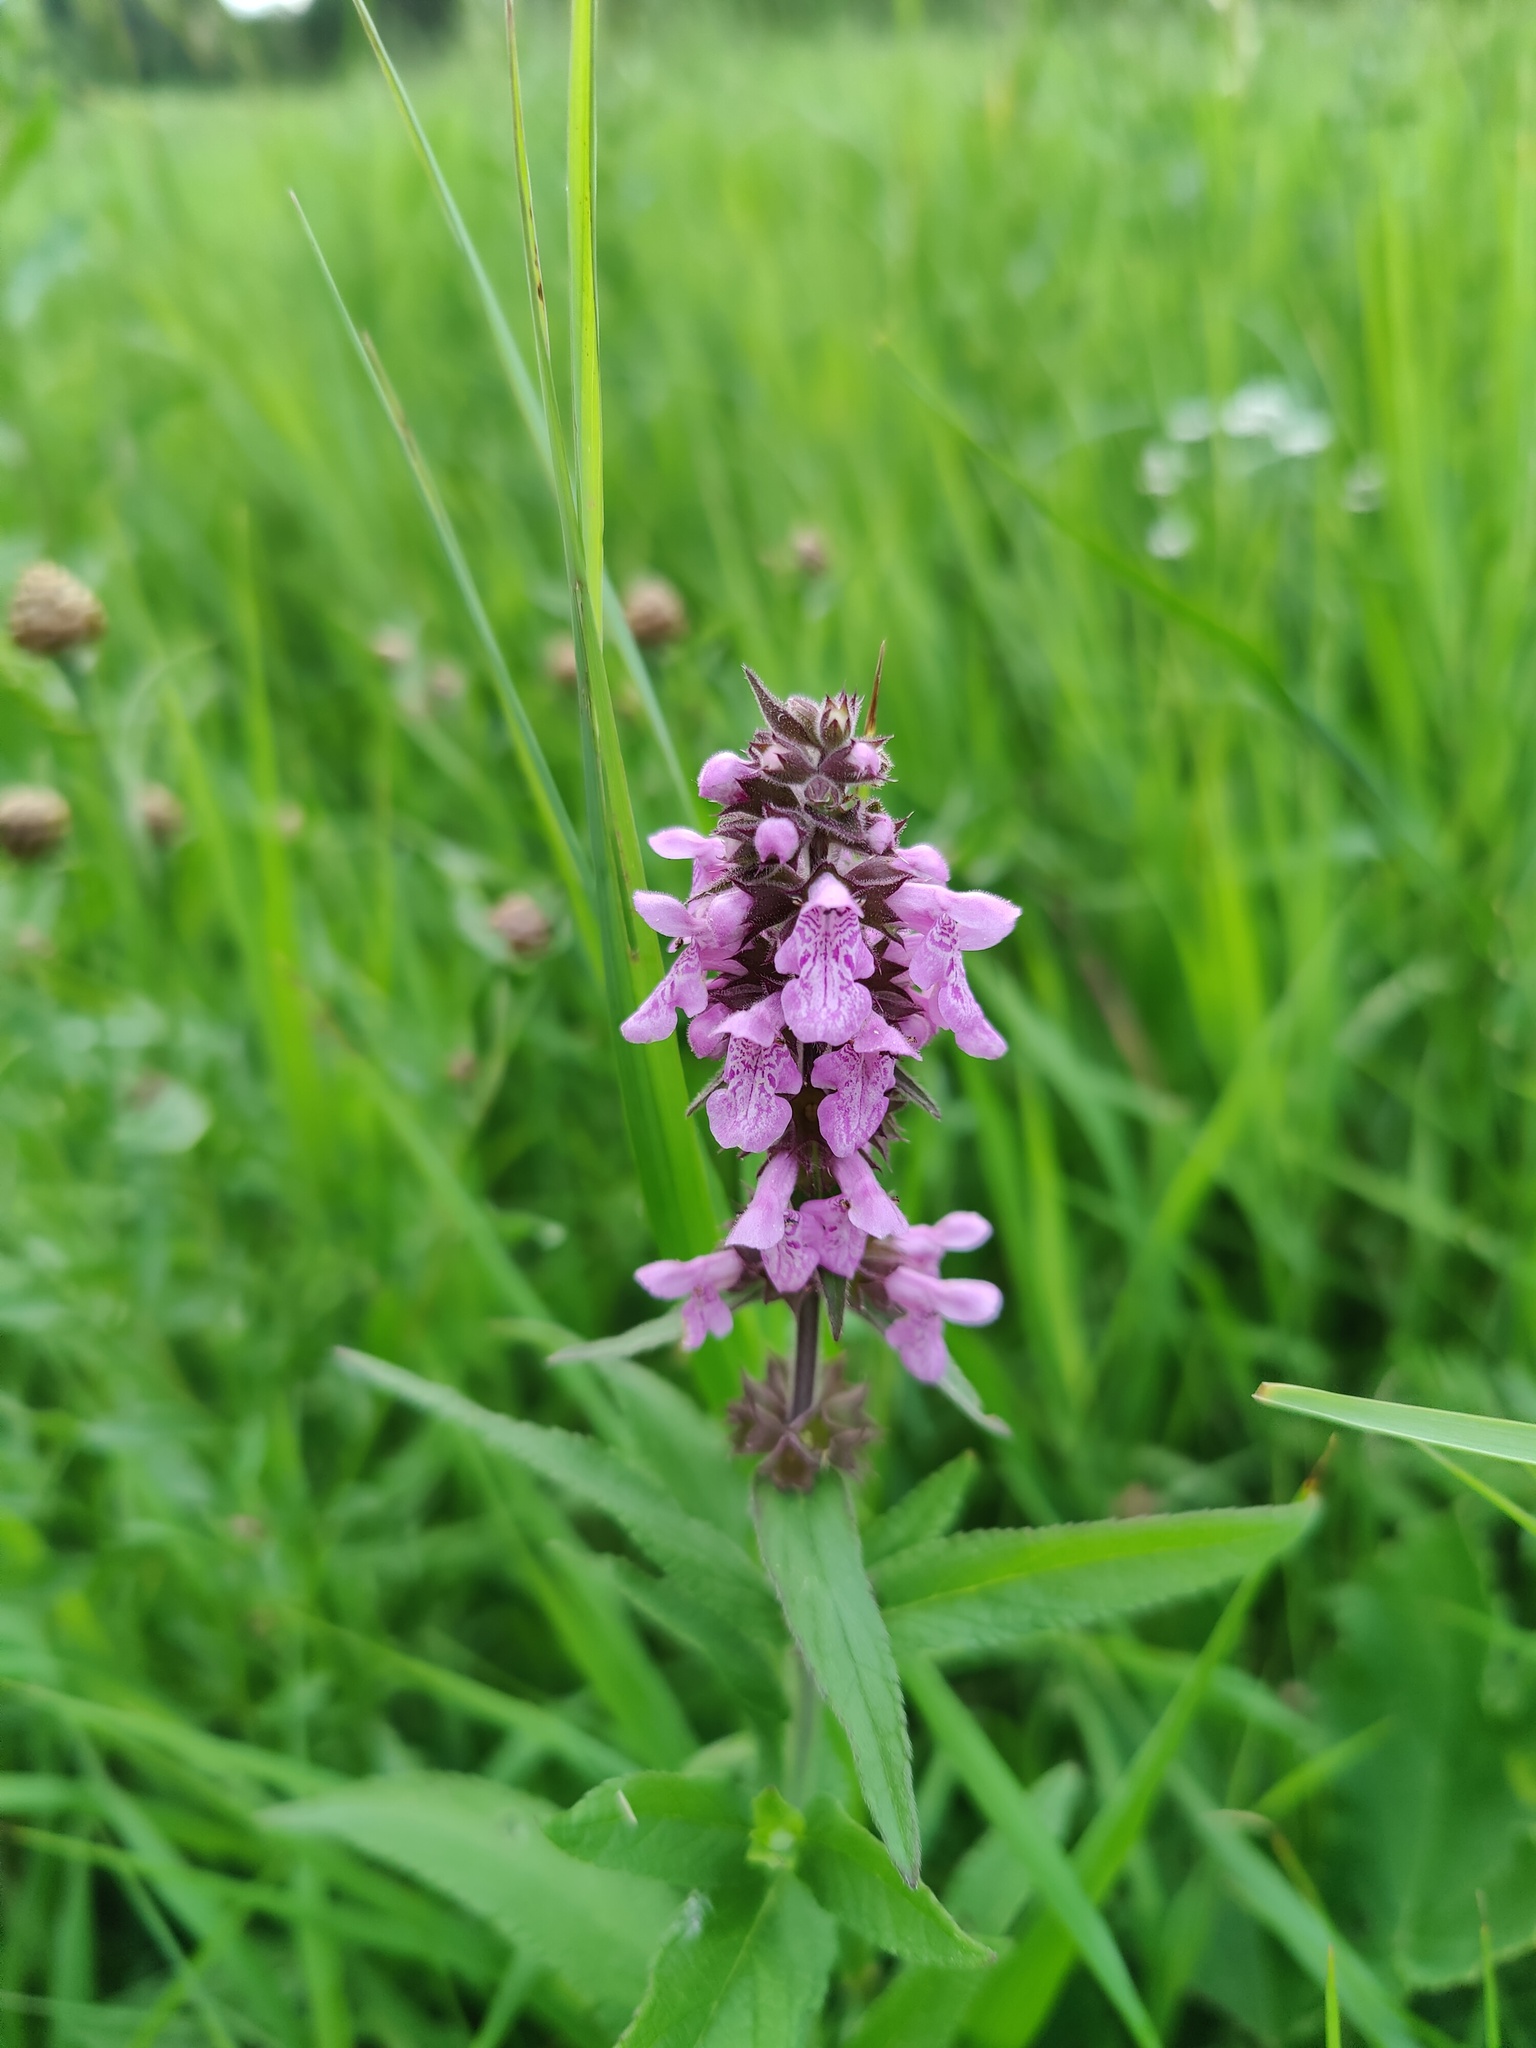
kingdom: Plantae
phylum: Tracheophyta
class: Magnoliopsida
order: Lamiales
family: Lamiaceae
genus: Stachys
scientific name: Stachys palustris
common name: Marsh woundwort
